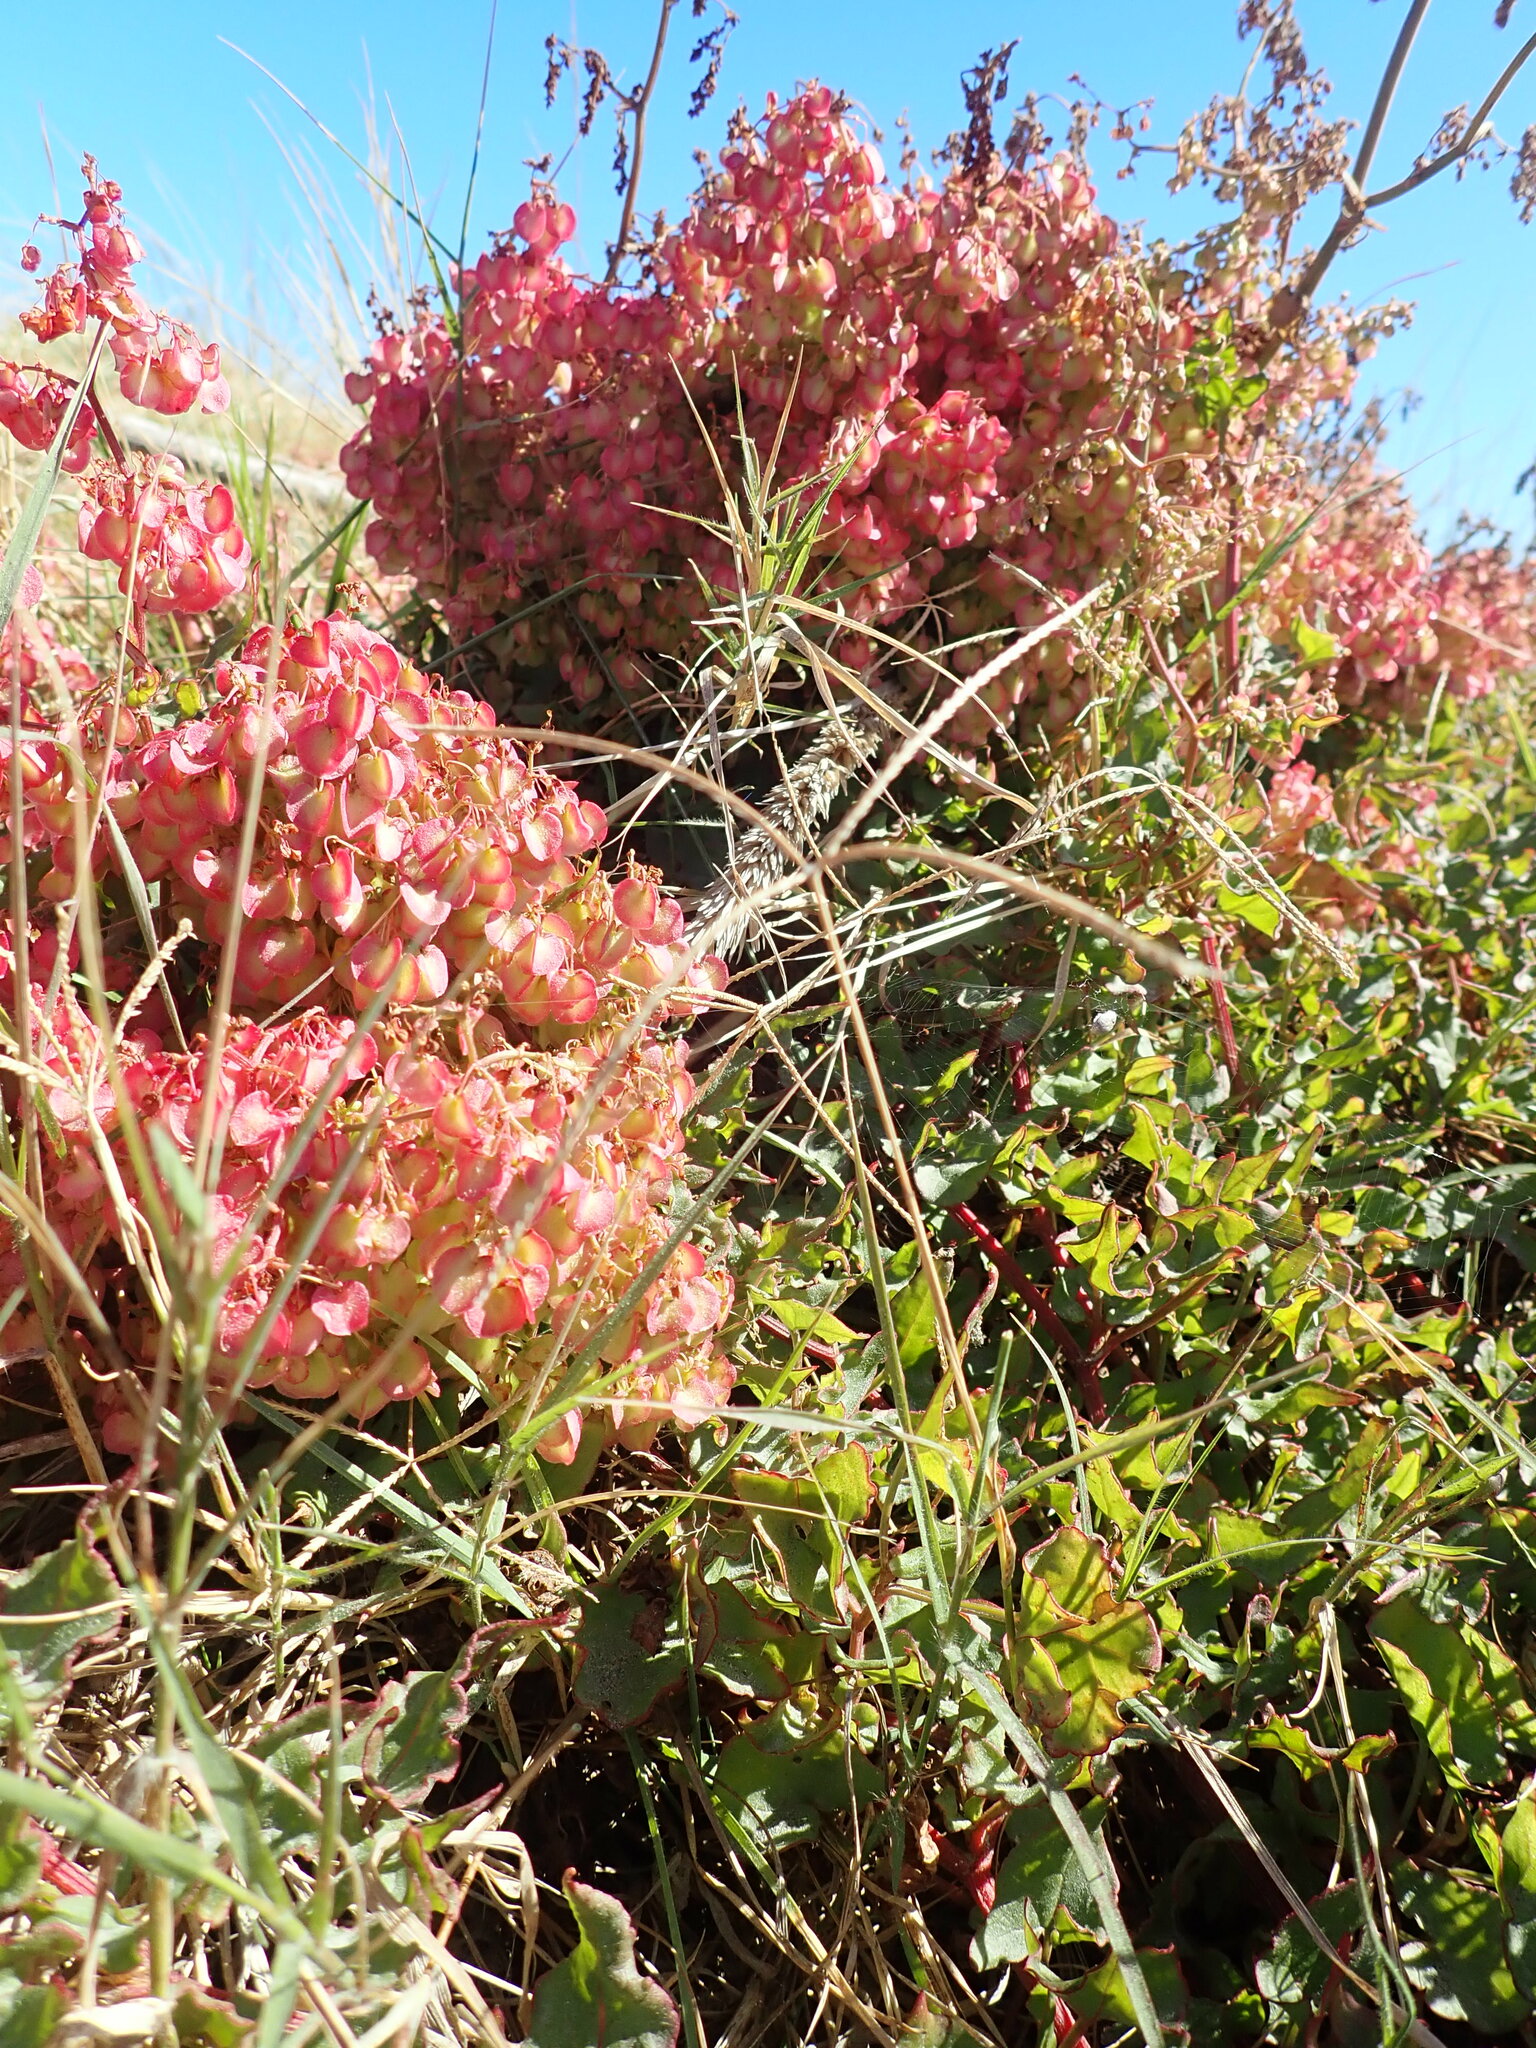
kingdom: Plantae
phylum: Tracheophyta
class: Magnoliopsida
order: Caryophyllales
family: Polygonaceae
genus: Rumex
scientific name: Rumex sagittatus
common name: Climbing dock
